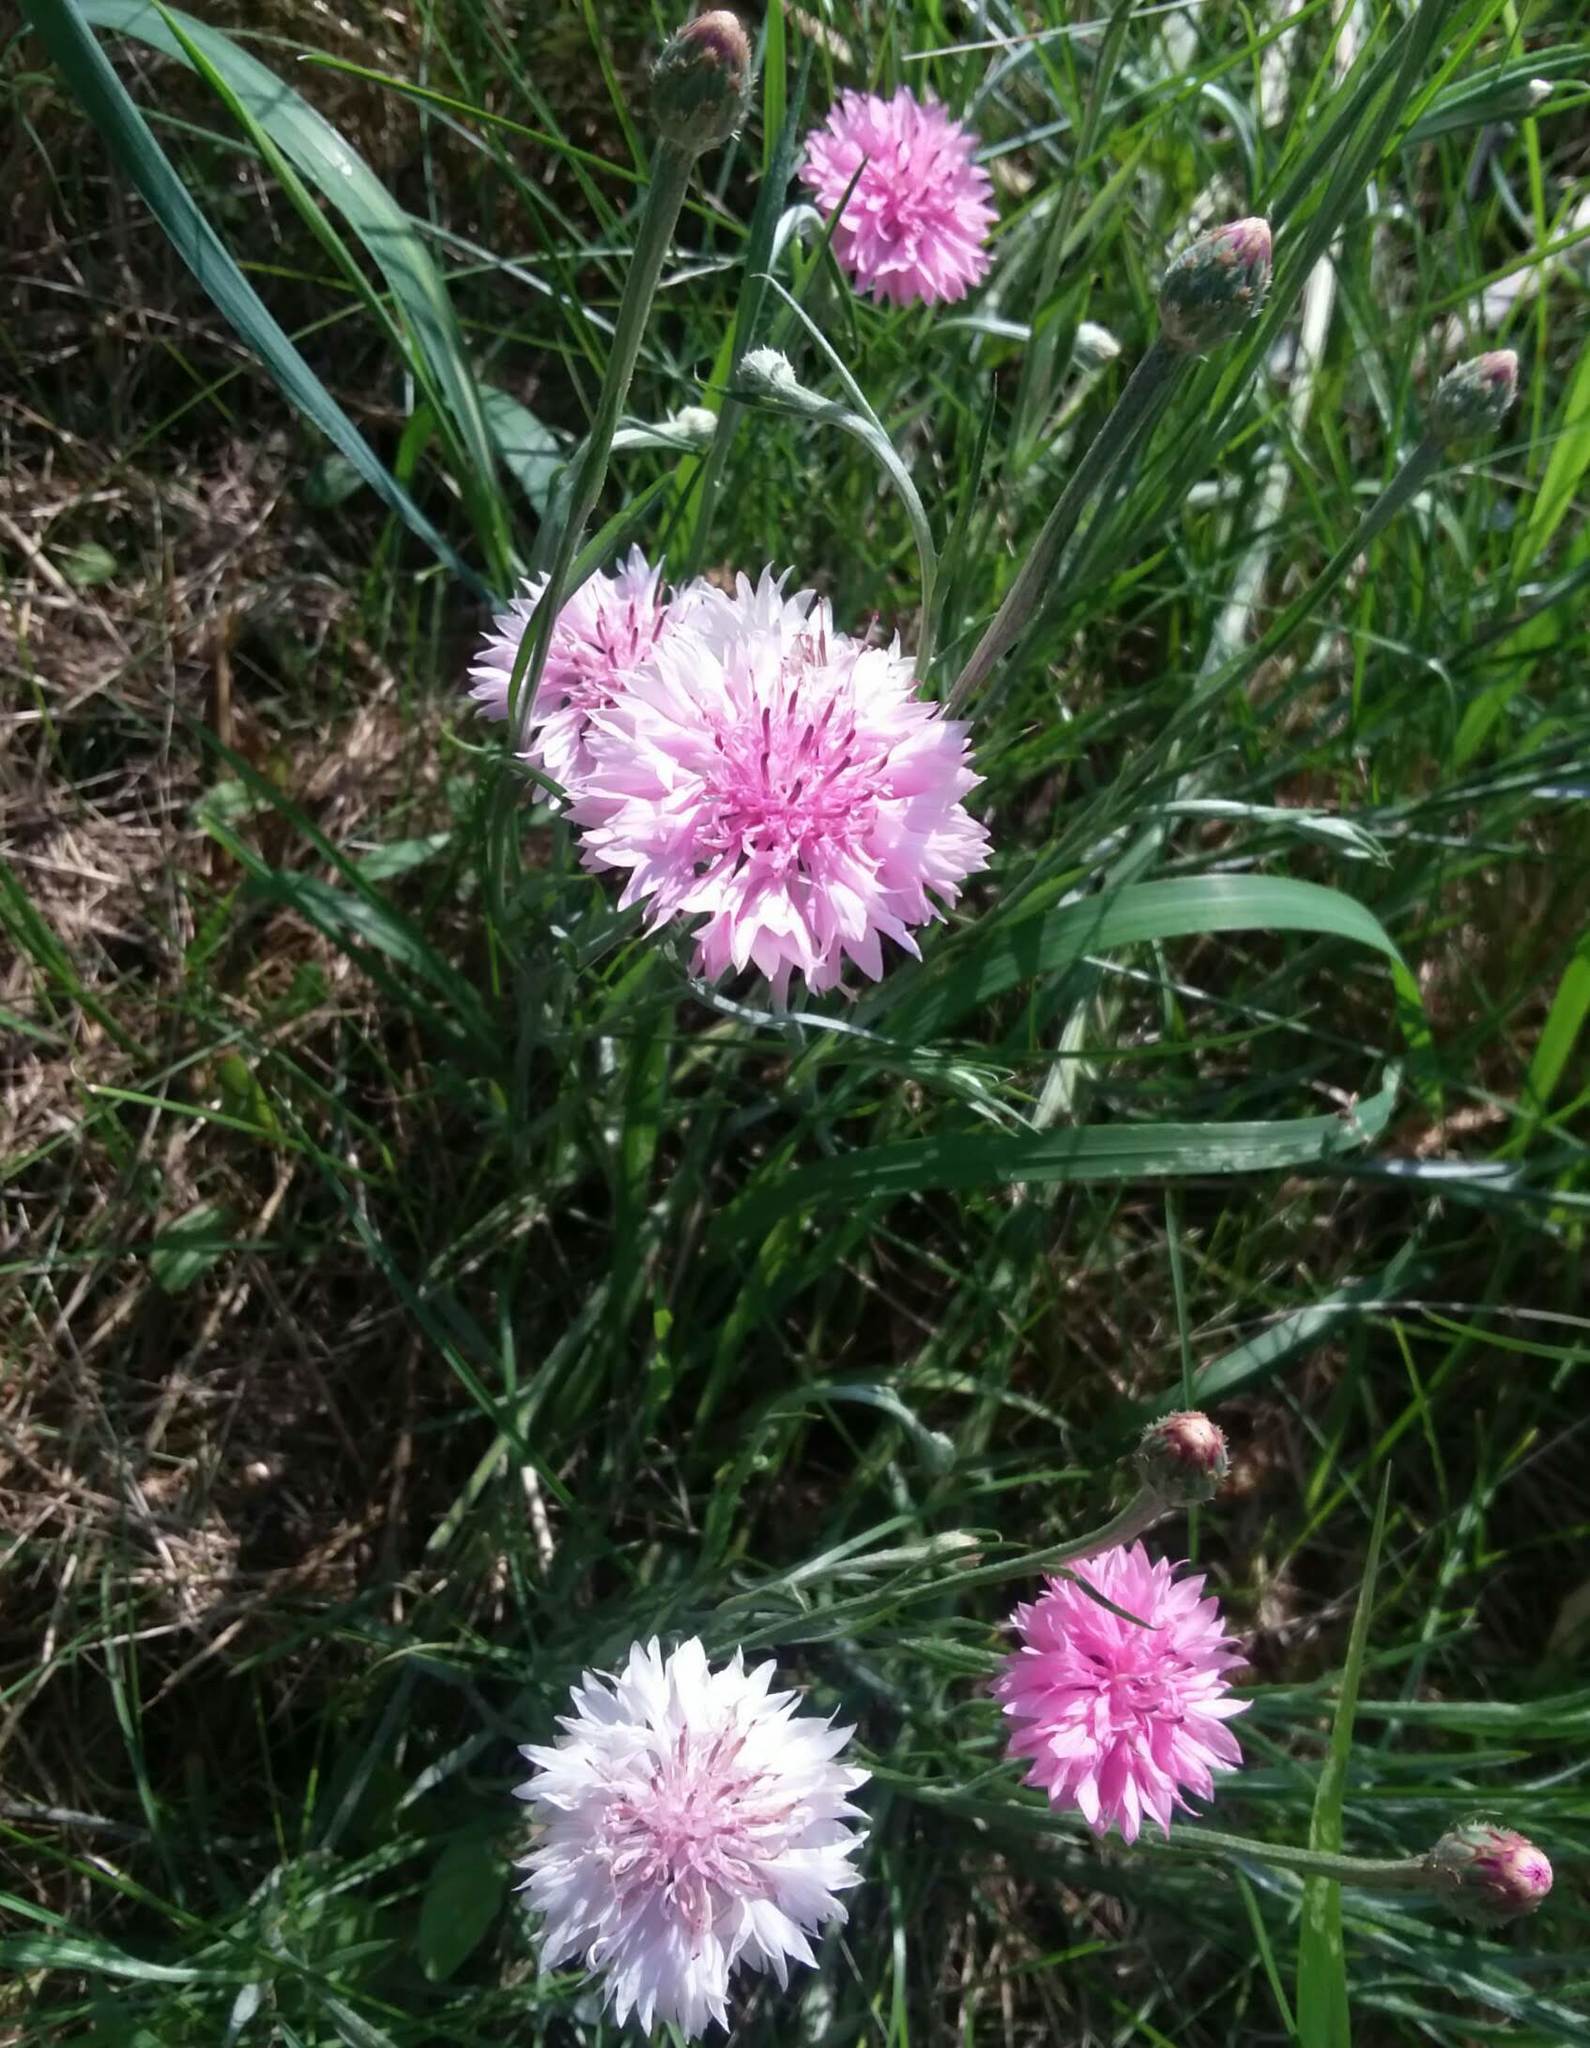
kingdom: Plantae
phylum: Tracheophyta
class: Magnoliopsida
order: Asterales
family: Asteraceae
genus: Centaurea
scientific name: Centaurea cyanus
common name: Cornflower
